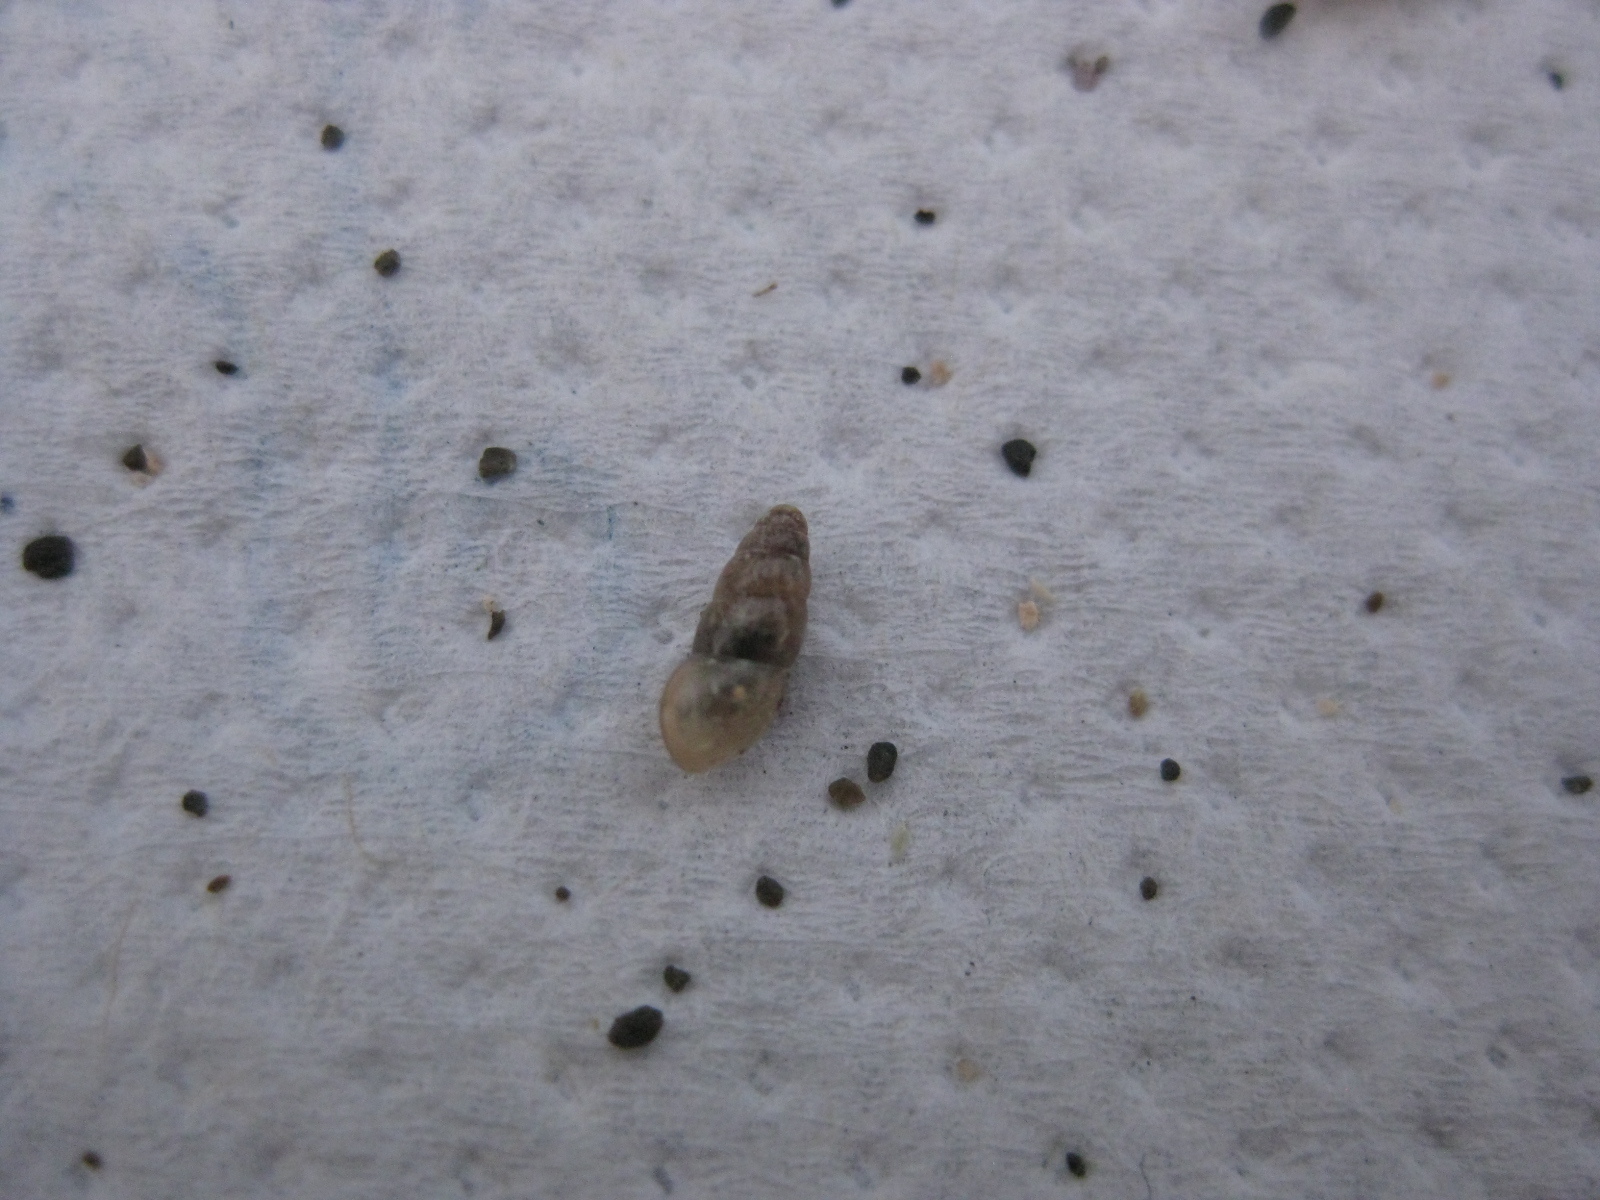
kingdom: Animalia
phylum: Mollusca
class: Gastropoda
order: Stylommatophora
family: Cochlicopidae
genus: Cochlicopa
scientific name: Cochlicopa lubrica
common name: Glossy pillar snail
